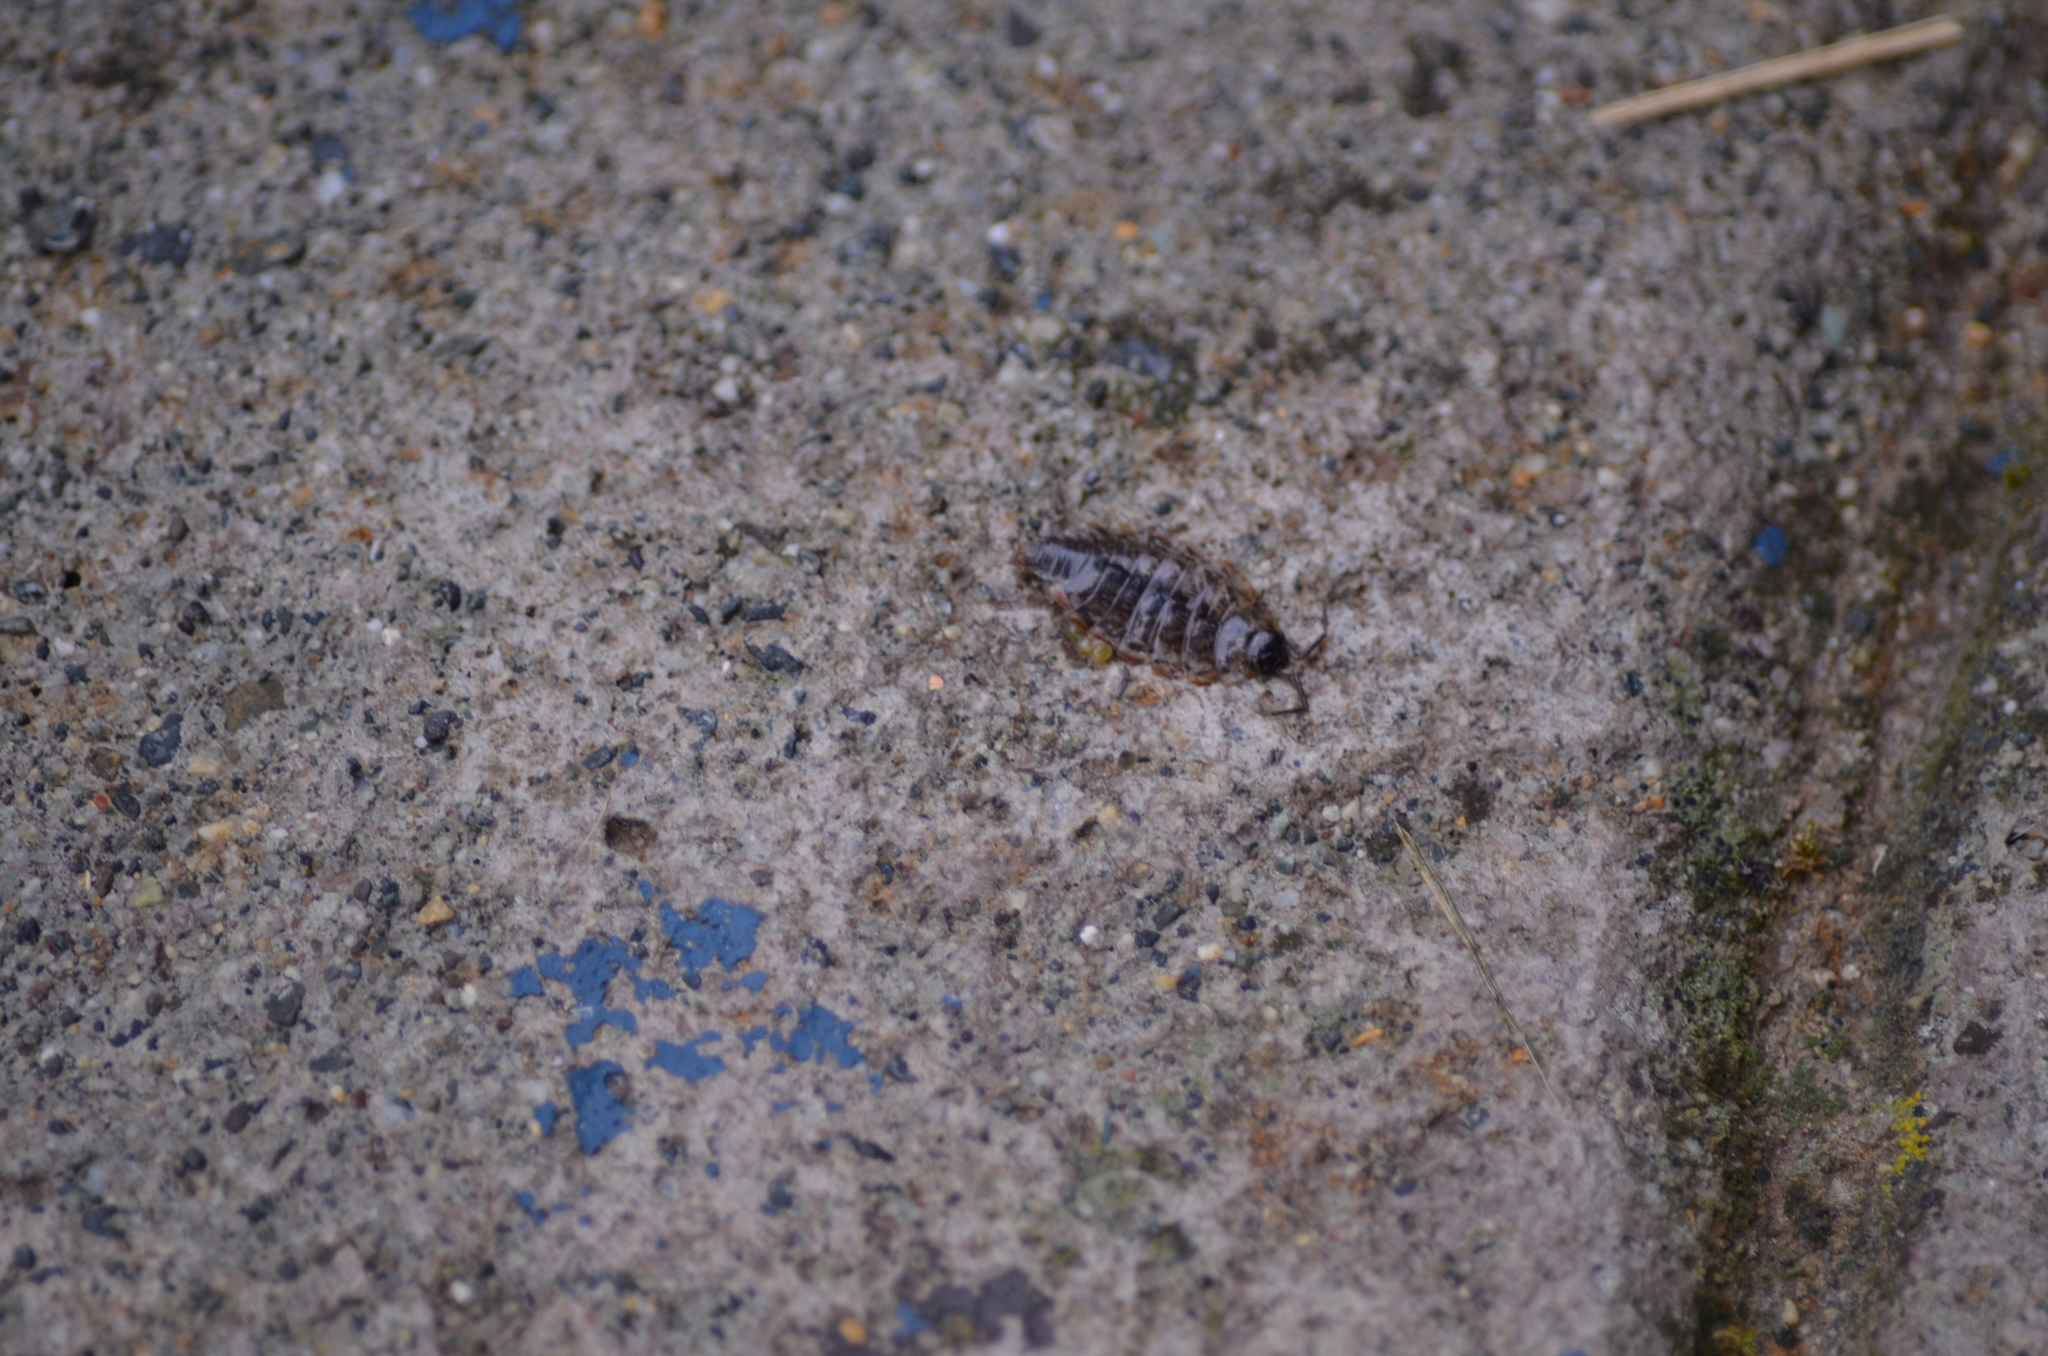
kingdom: Animalia
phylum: Arthropoda
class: Malacostraca
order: Isopoda
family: Philosciidae
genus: Philoscia
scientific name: Philoscia muscorum
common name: Common striped woodlouse
